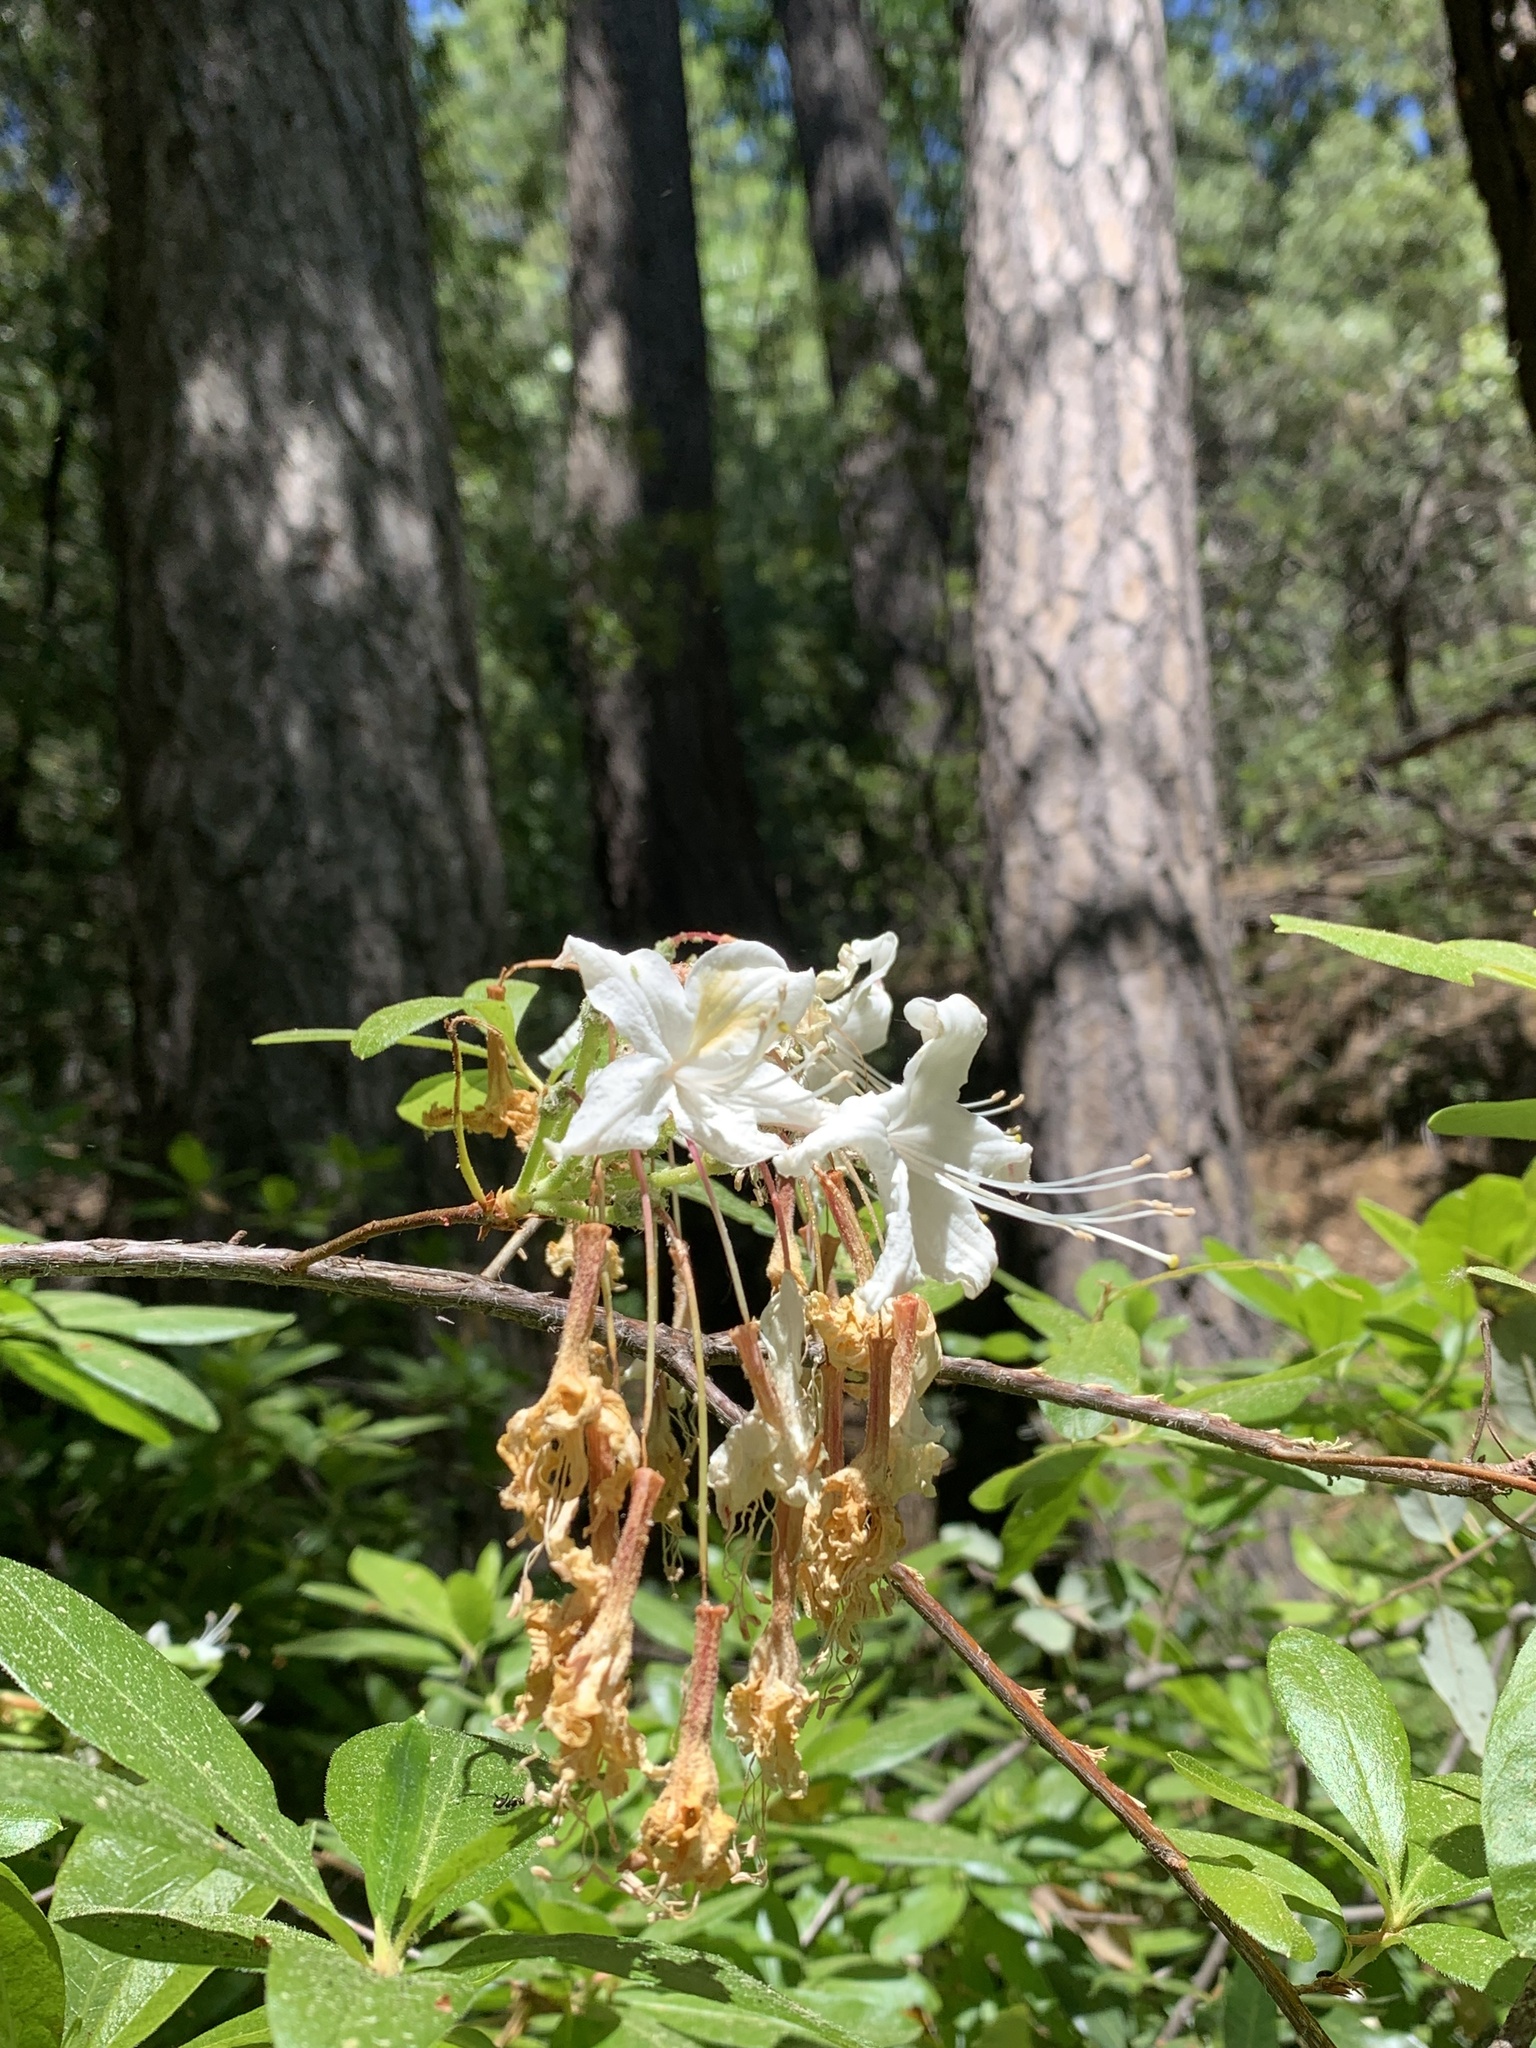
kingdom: Plantae
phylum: Tracheophyta
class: Magnoliopsida
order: Ericales
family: Ericaceae
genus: Rhododendron
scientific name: Rhododendron occidentale
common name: Western azalea
